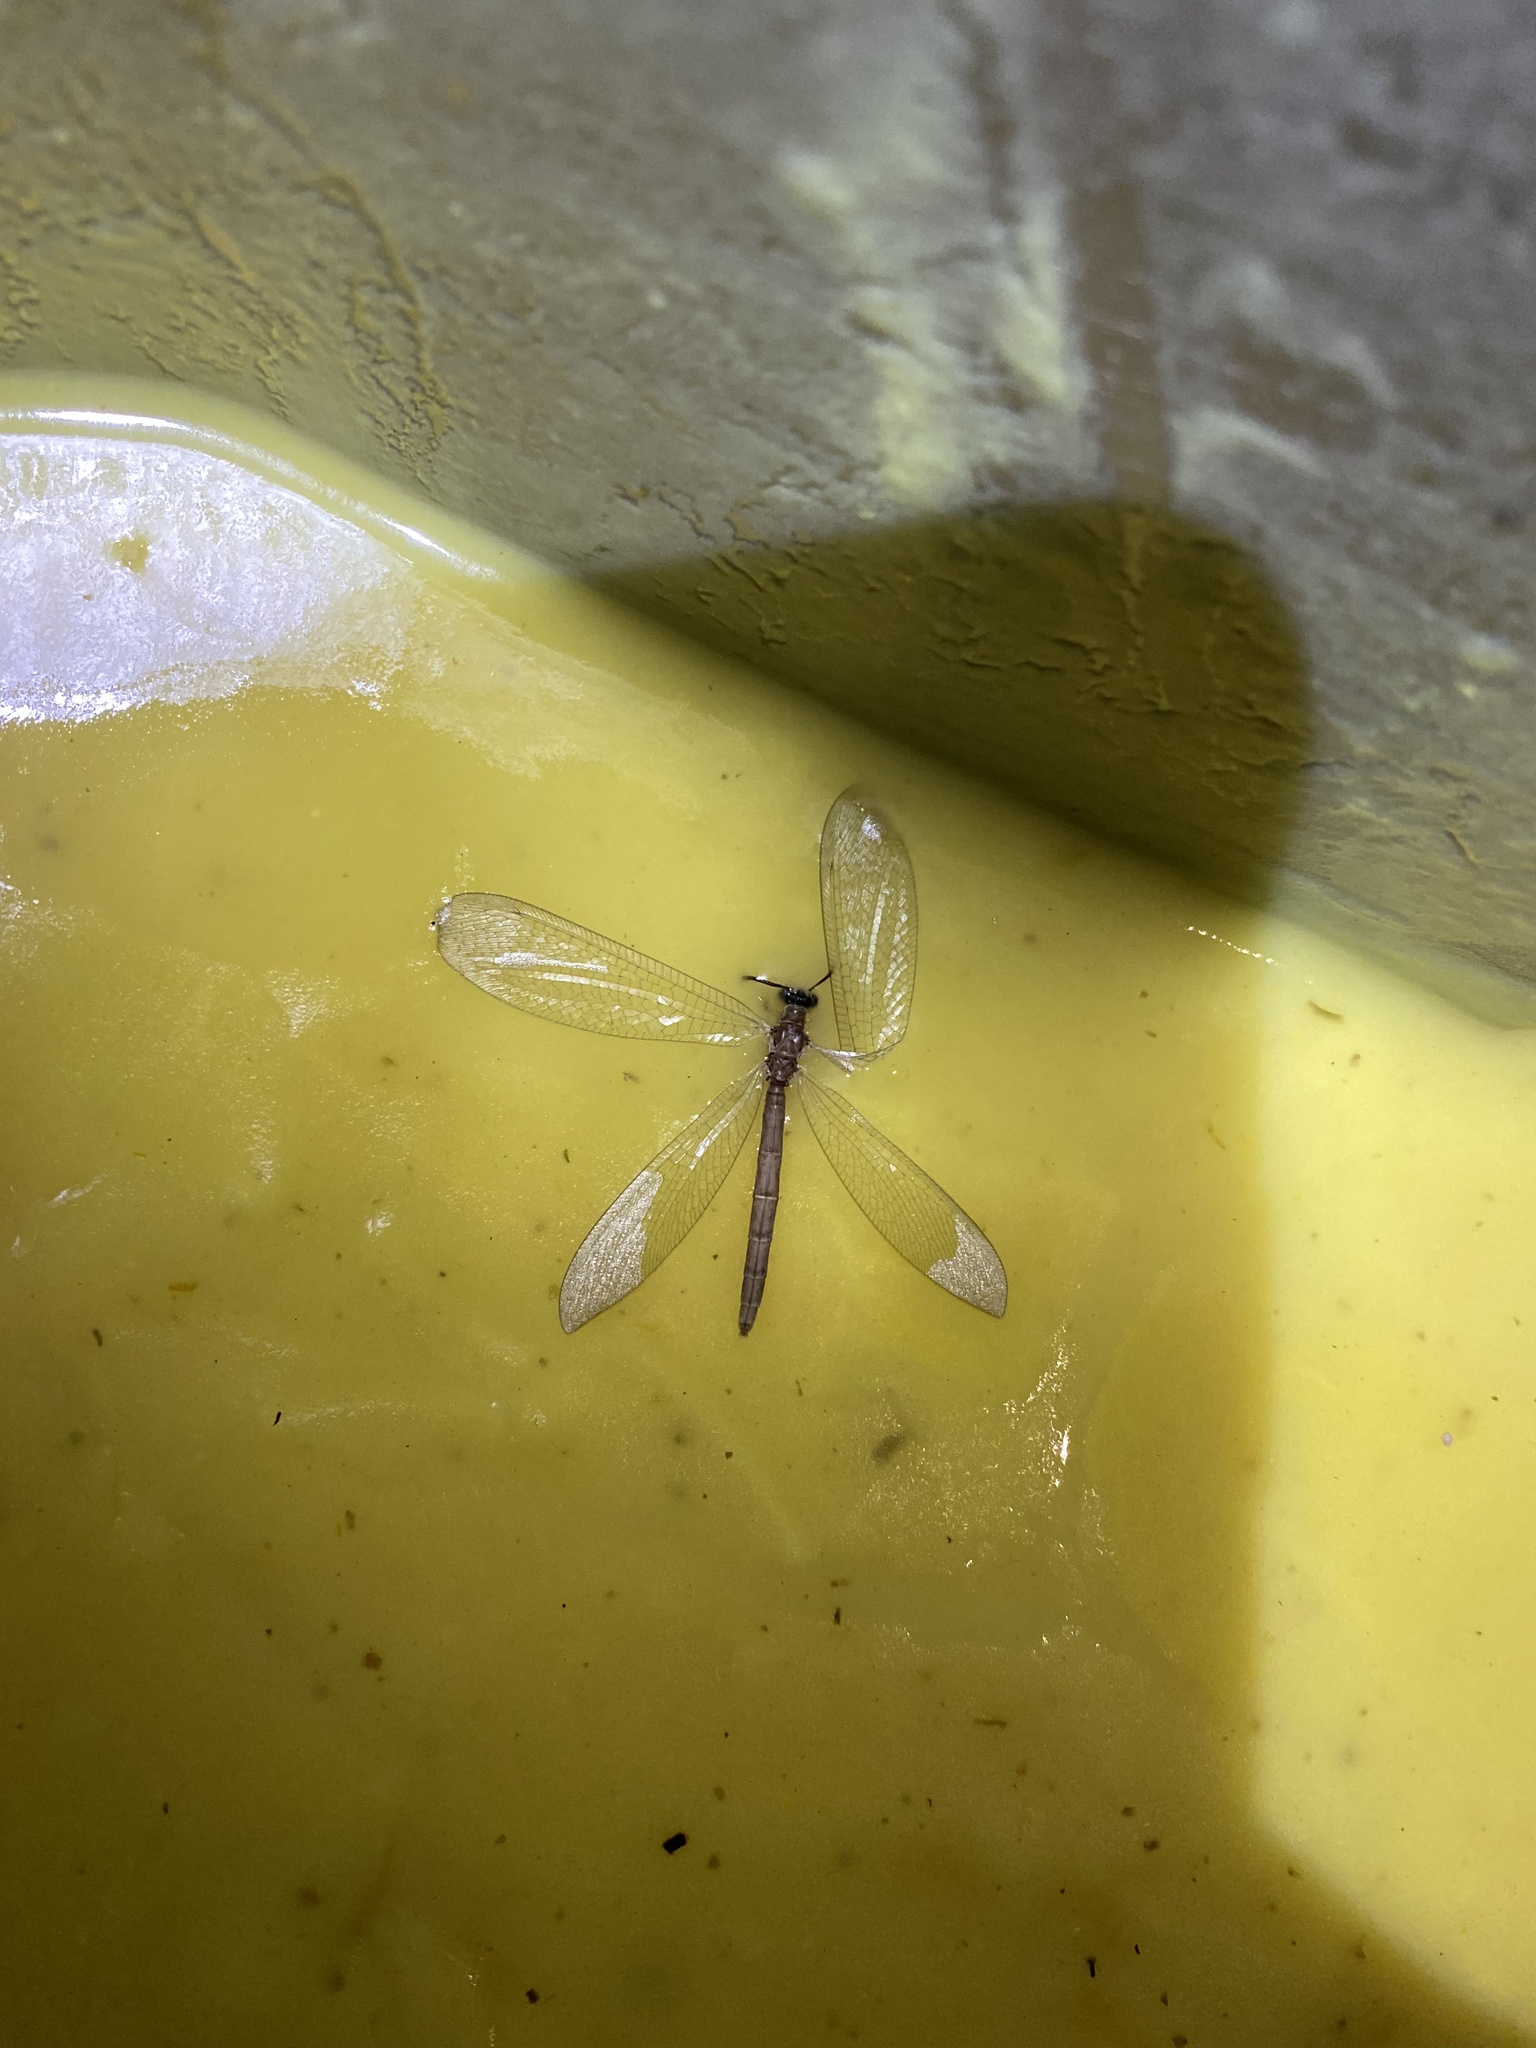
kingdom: Animalia
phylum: Arthropoda
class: Insecta
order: Neuroptera
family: Myrmeleontidae
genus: Myrmeleon
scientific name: Myrmeleon bore
